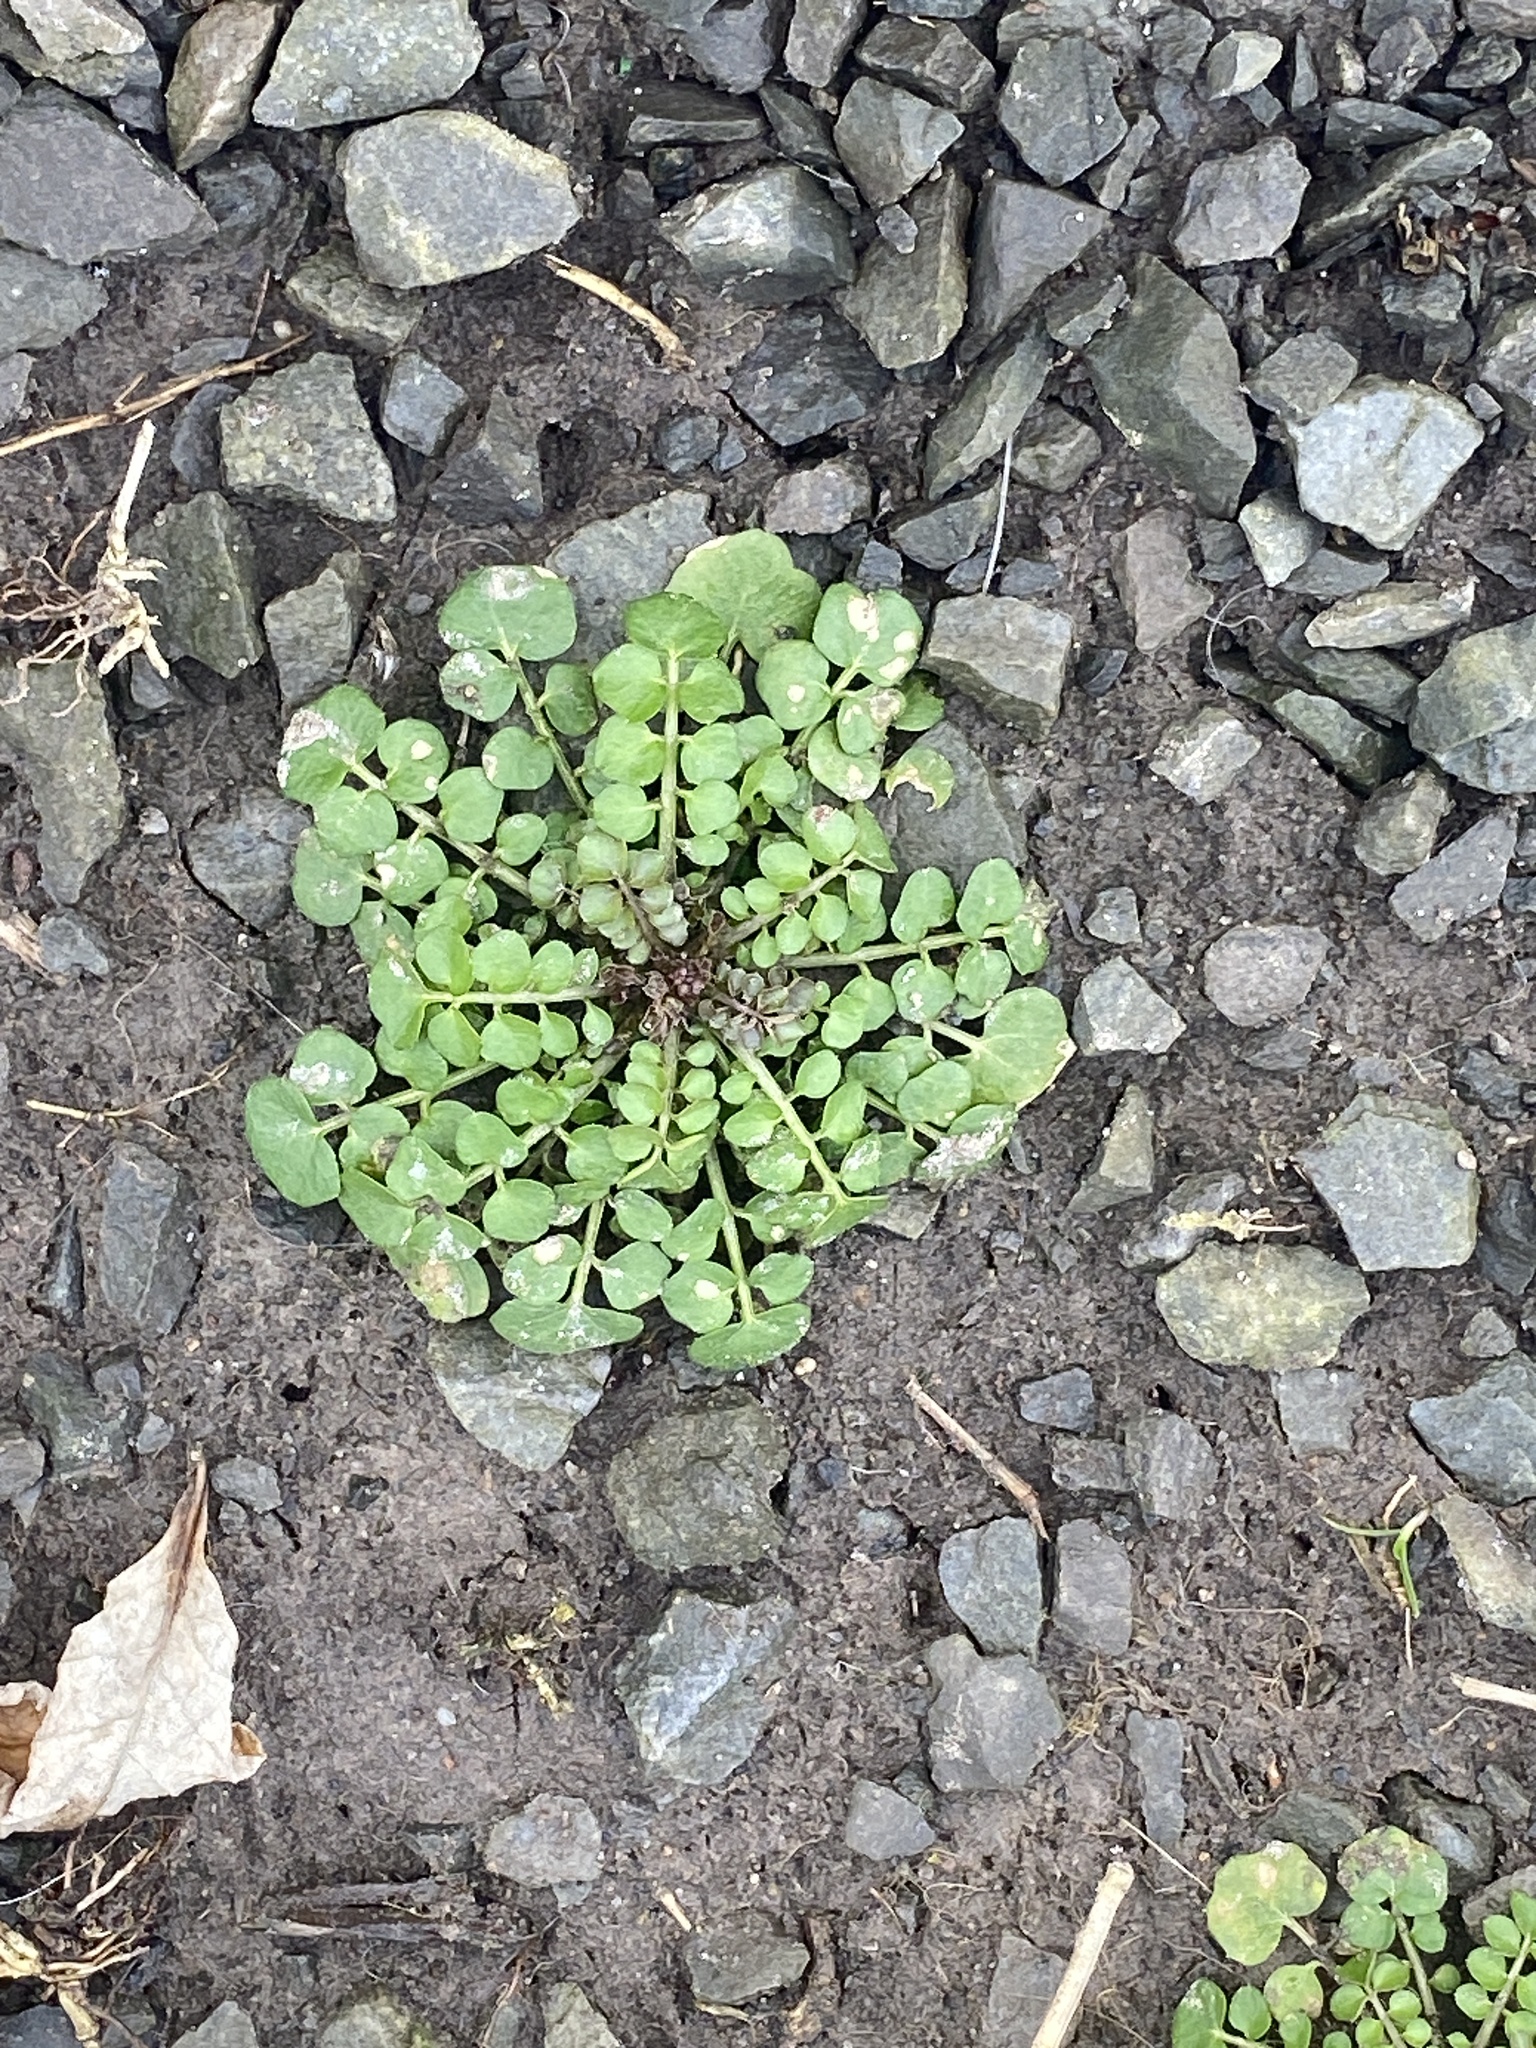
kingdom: Plantae
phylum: Tracheophyta
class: Magnoliopsida
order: Brassicales
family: Brassicaceae
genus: Cardamine
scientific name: Cardamine hirsuta
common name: Hairy bittercress
